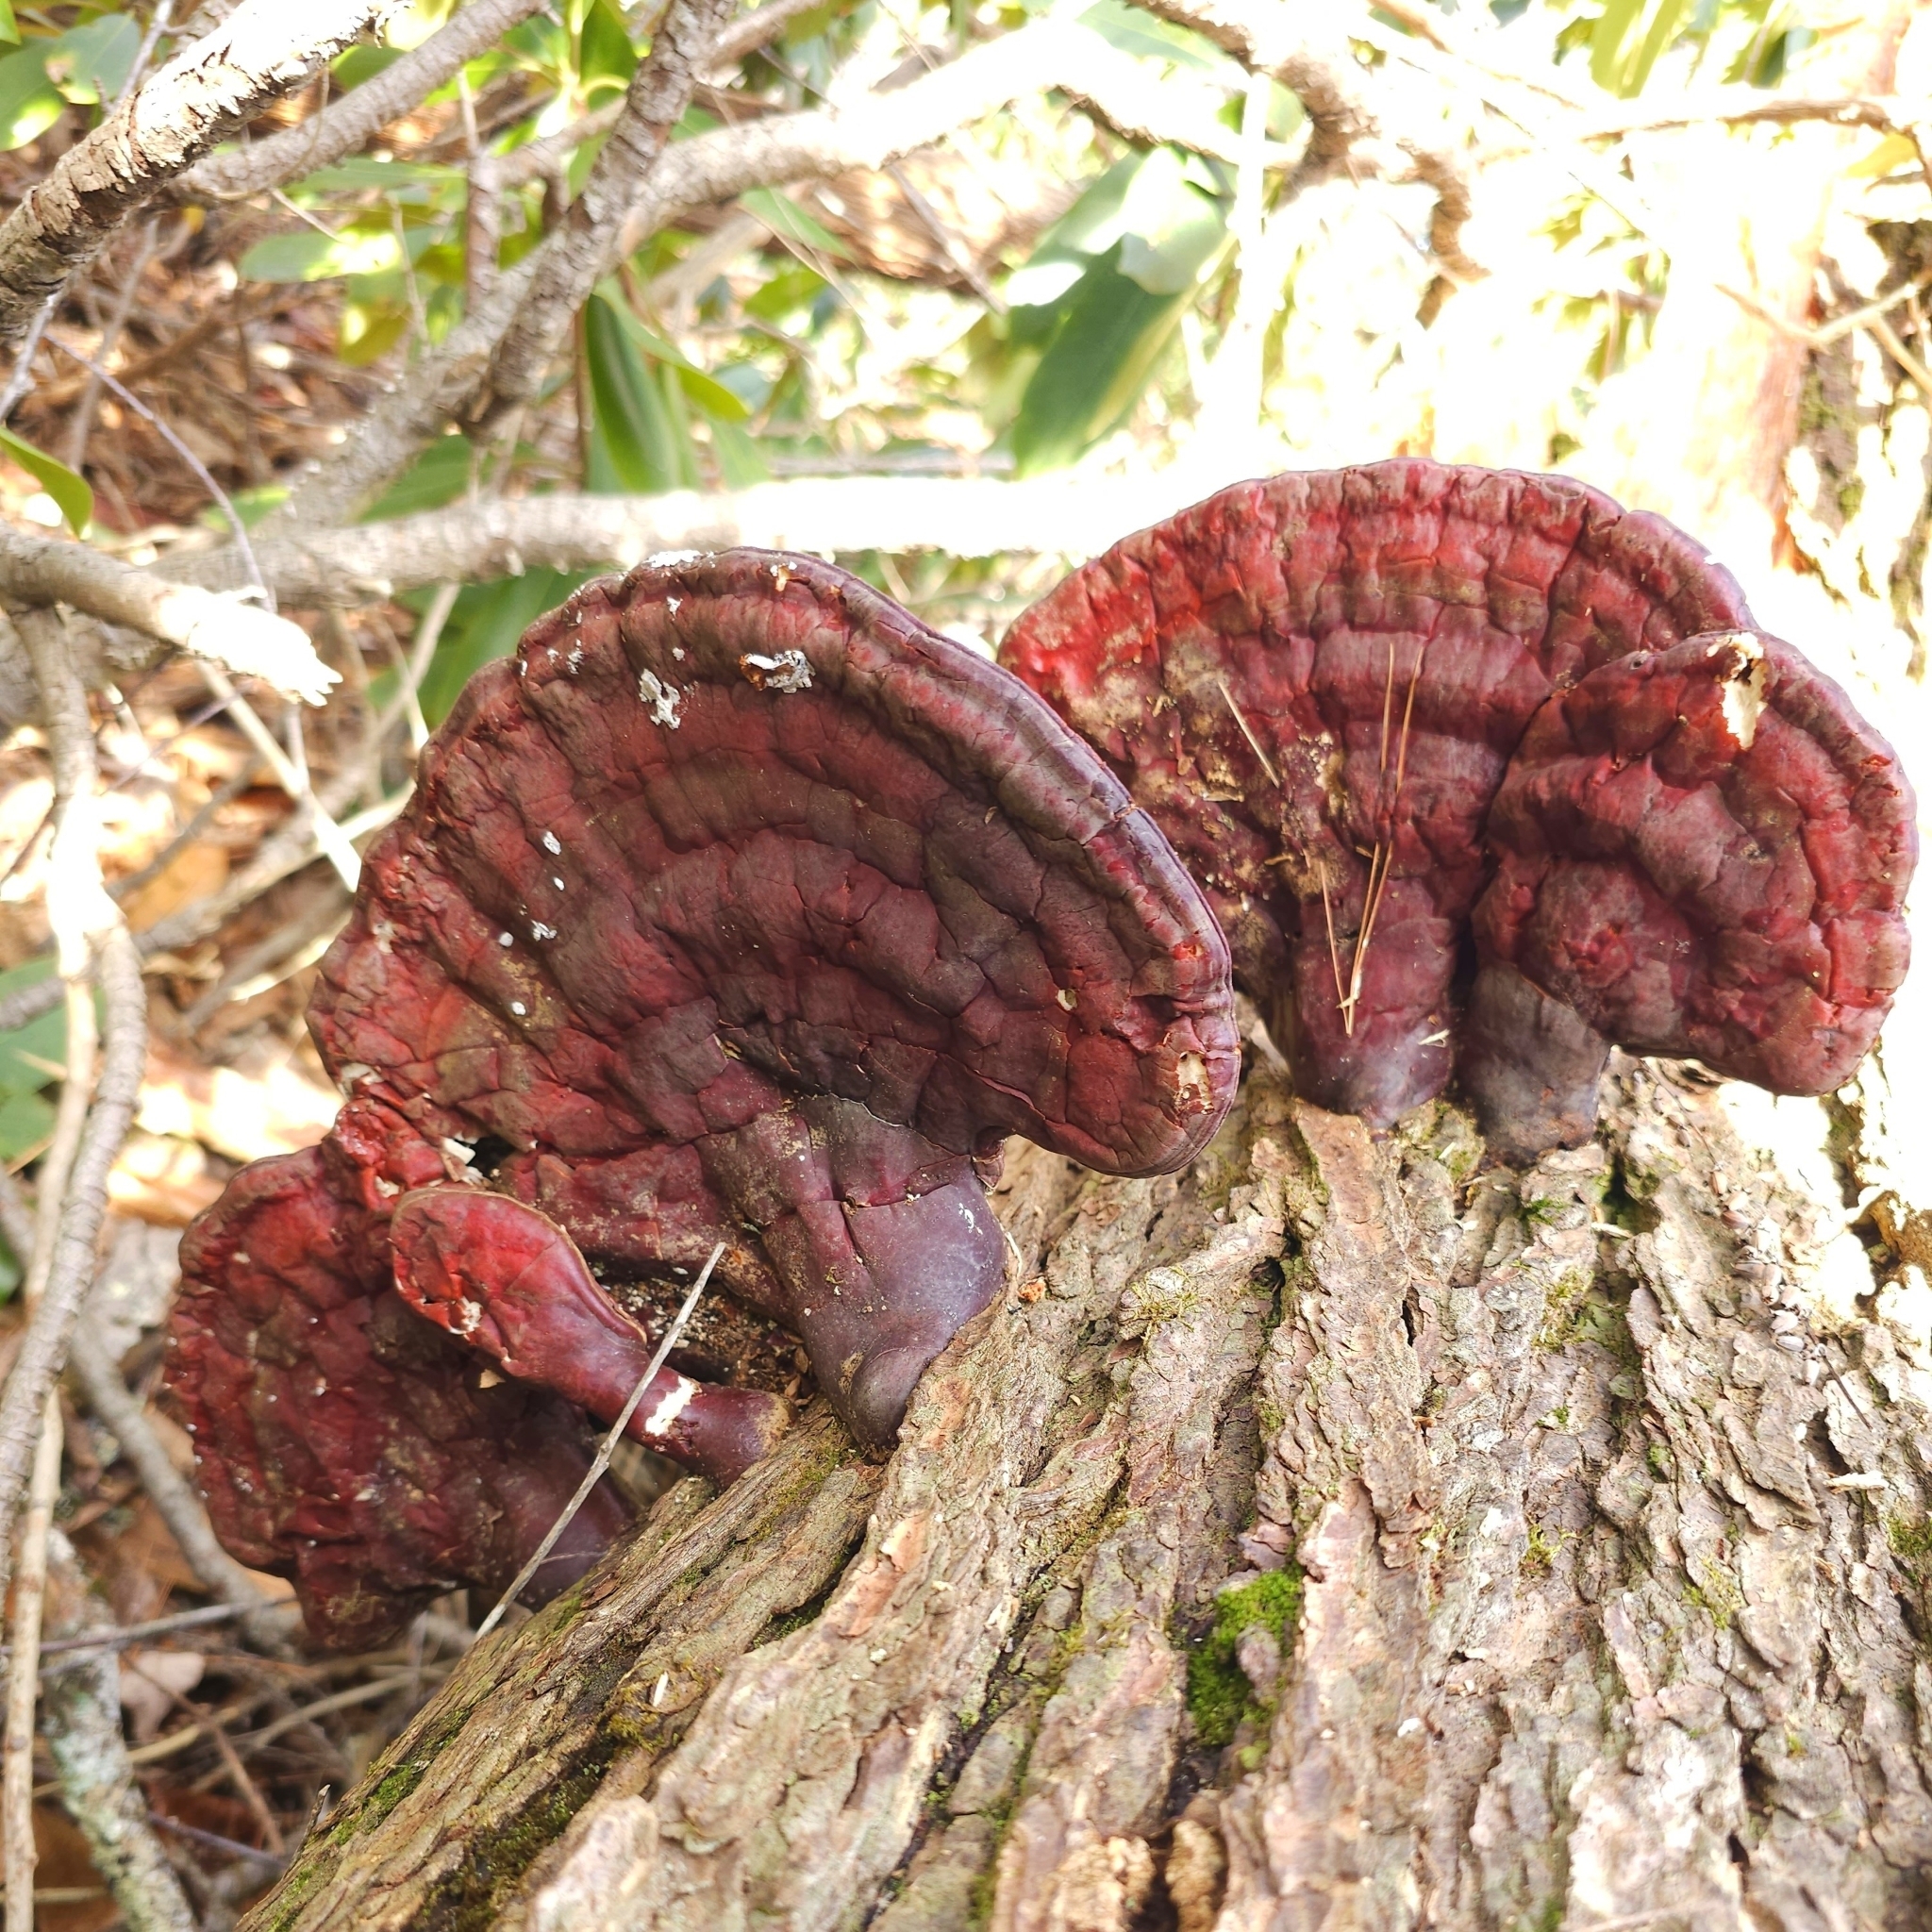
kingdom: Fungi
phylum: Basidiomycota
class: Agaricomycetes
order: Polyporales
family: Polyporaceae
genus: Ganoderma
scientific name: Ganoderma tsugae
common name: Hemlock varnish shelf
